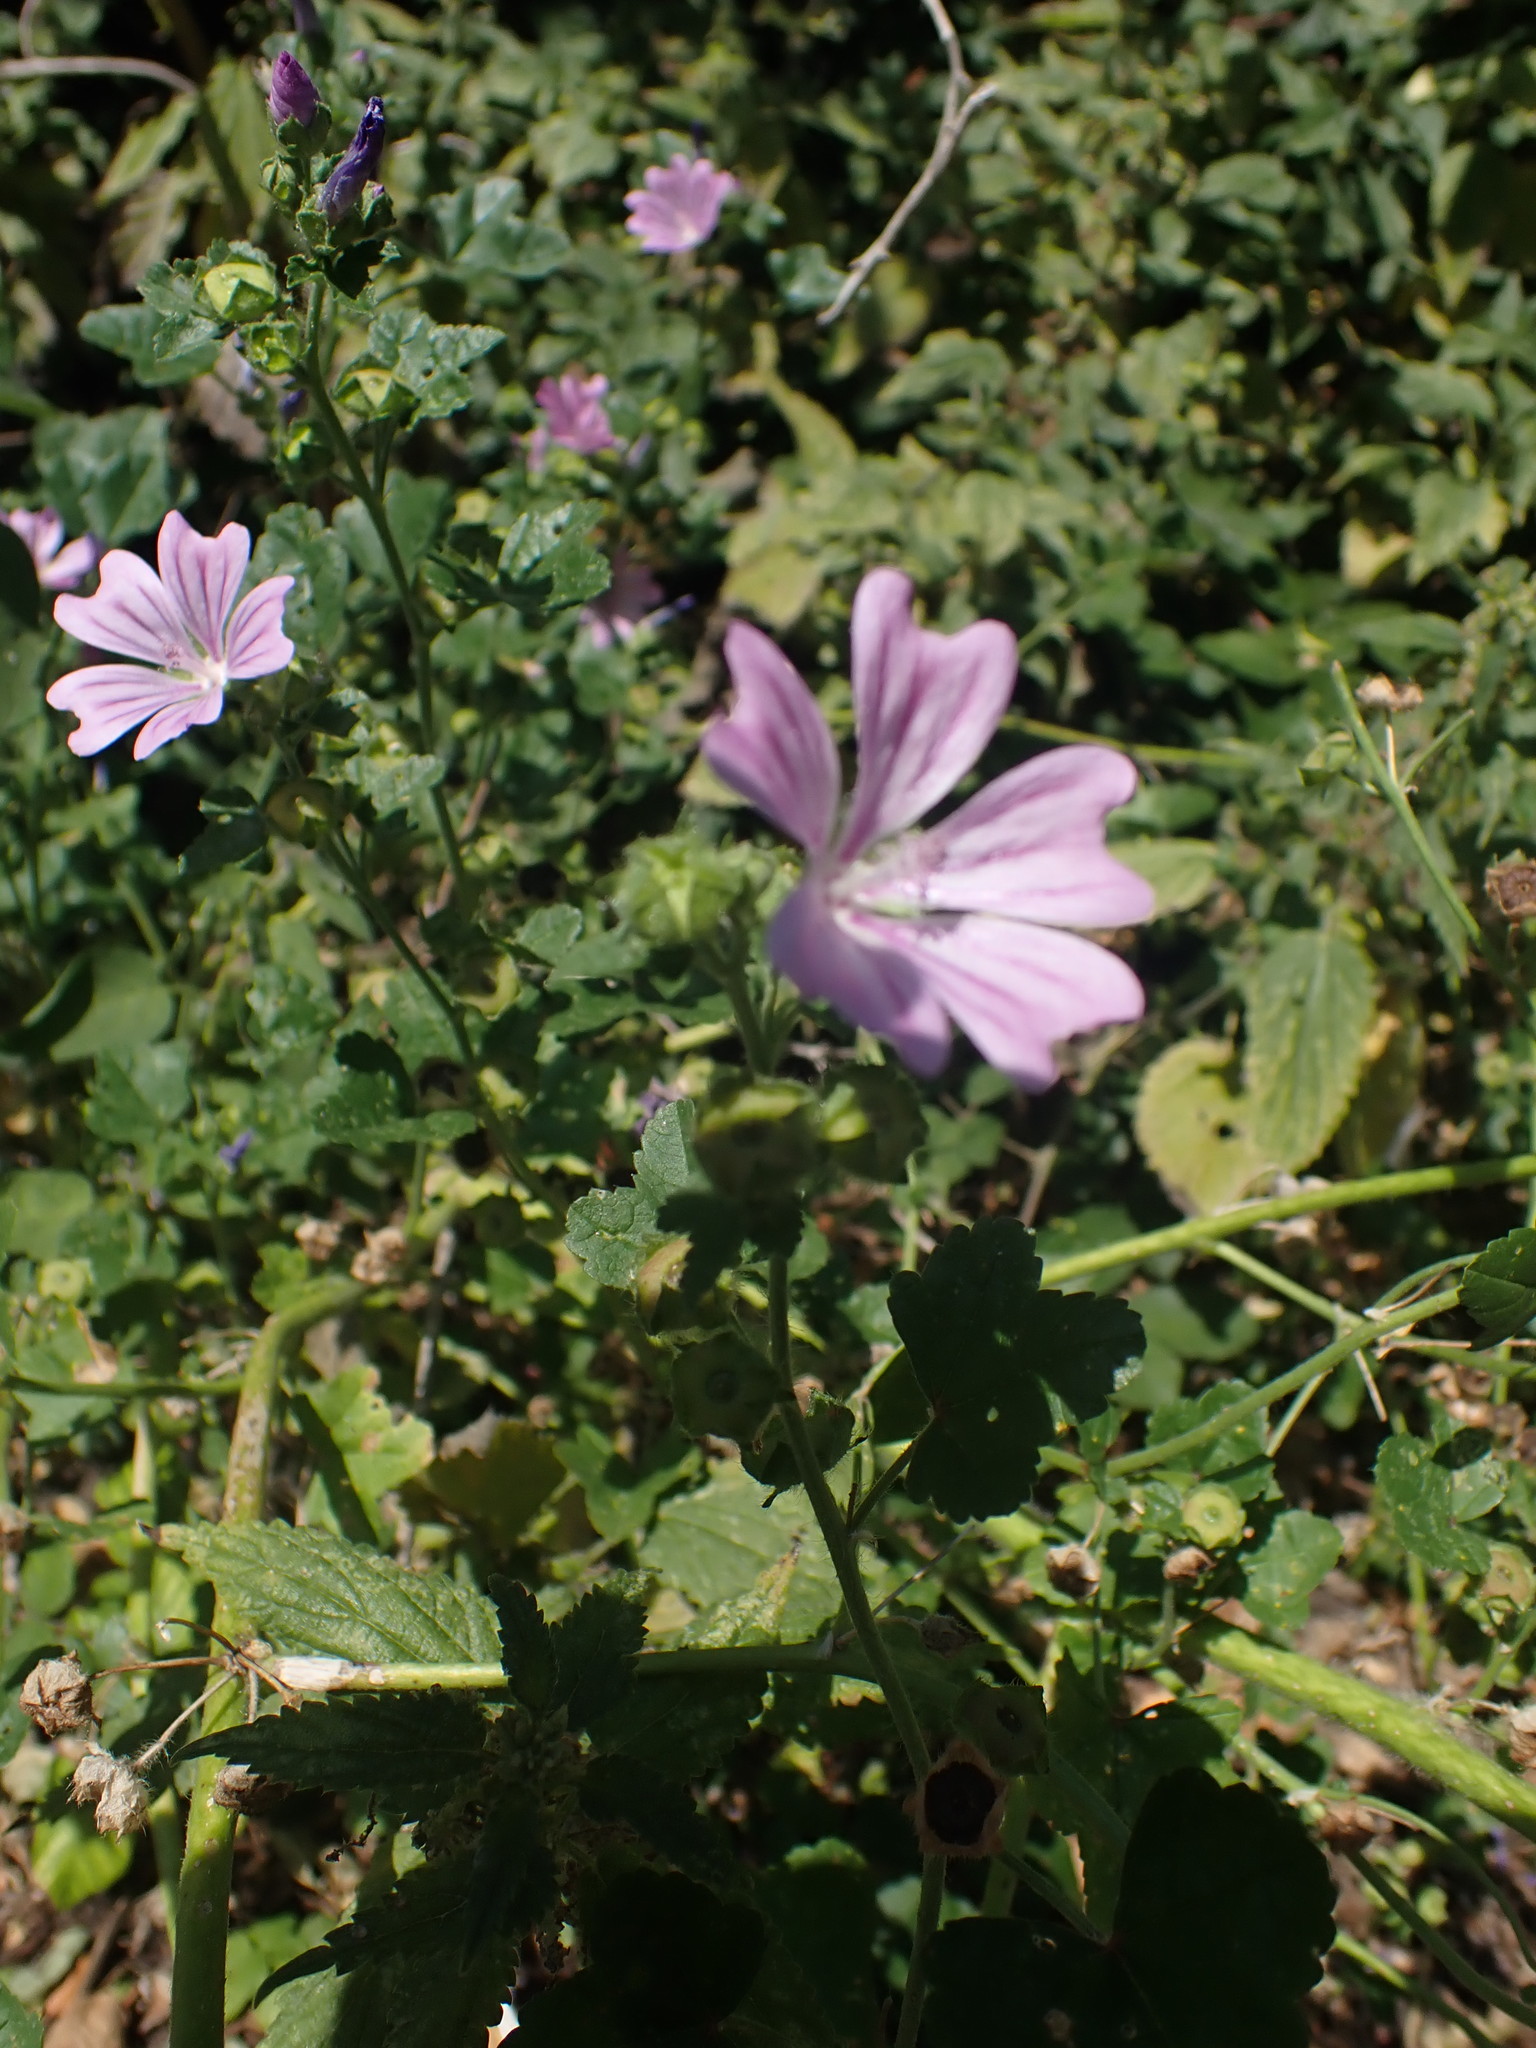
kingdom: Plantae
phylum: Tracheophyta
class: Magnoliopsida
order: Malvales
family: Malvaceae
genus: Malva
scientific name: Malva sylvestris
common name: Common mallow
